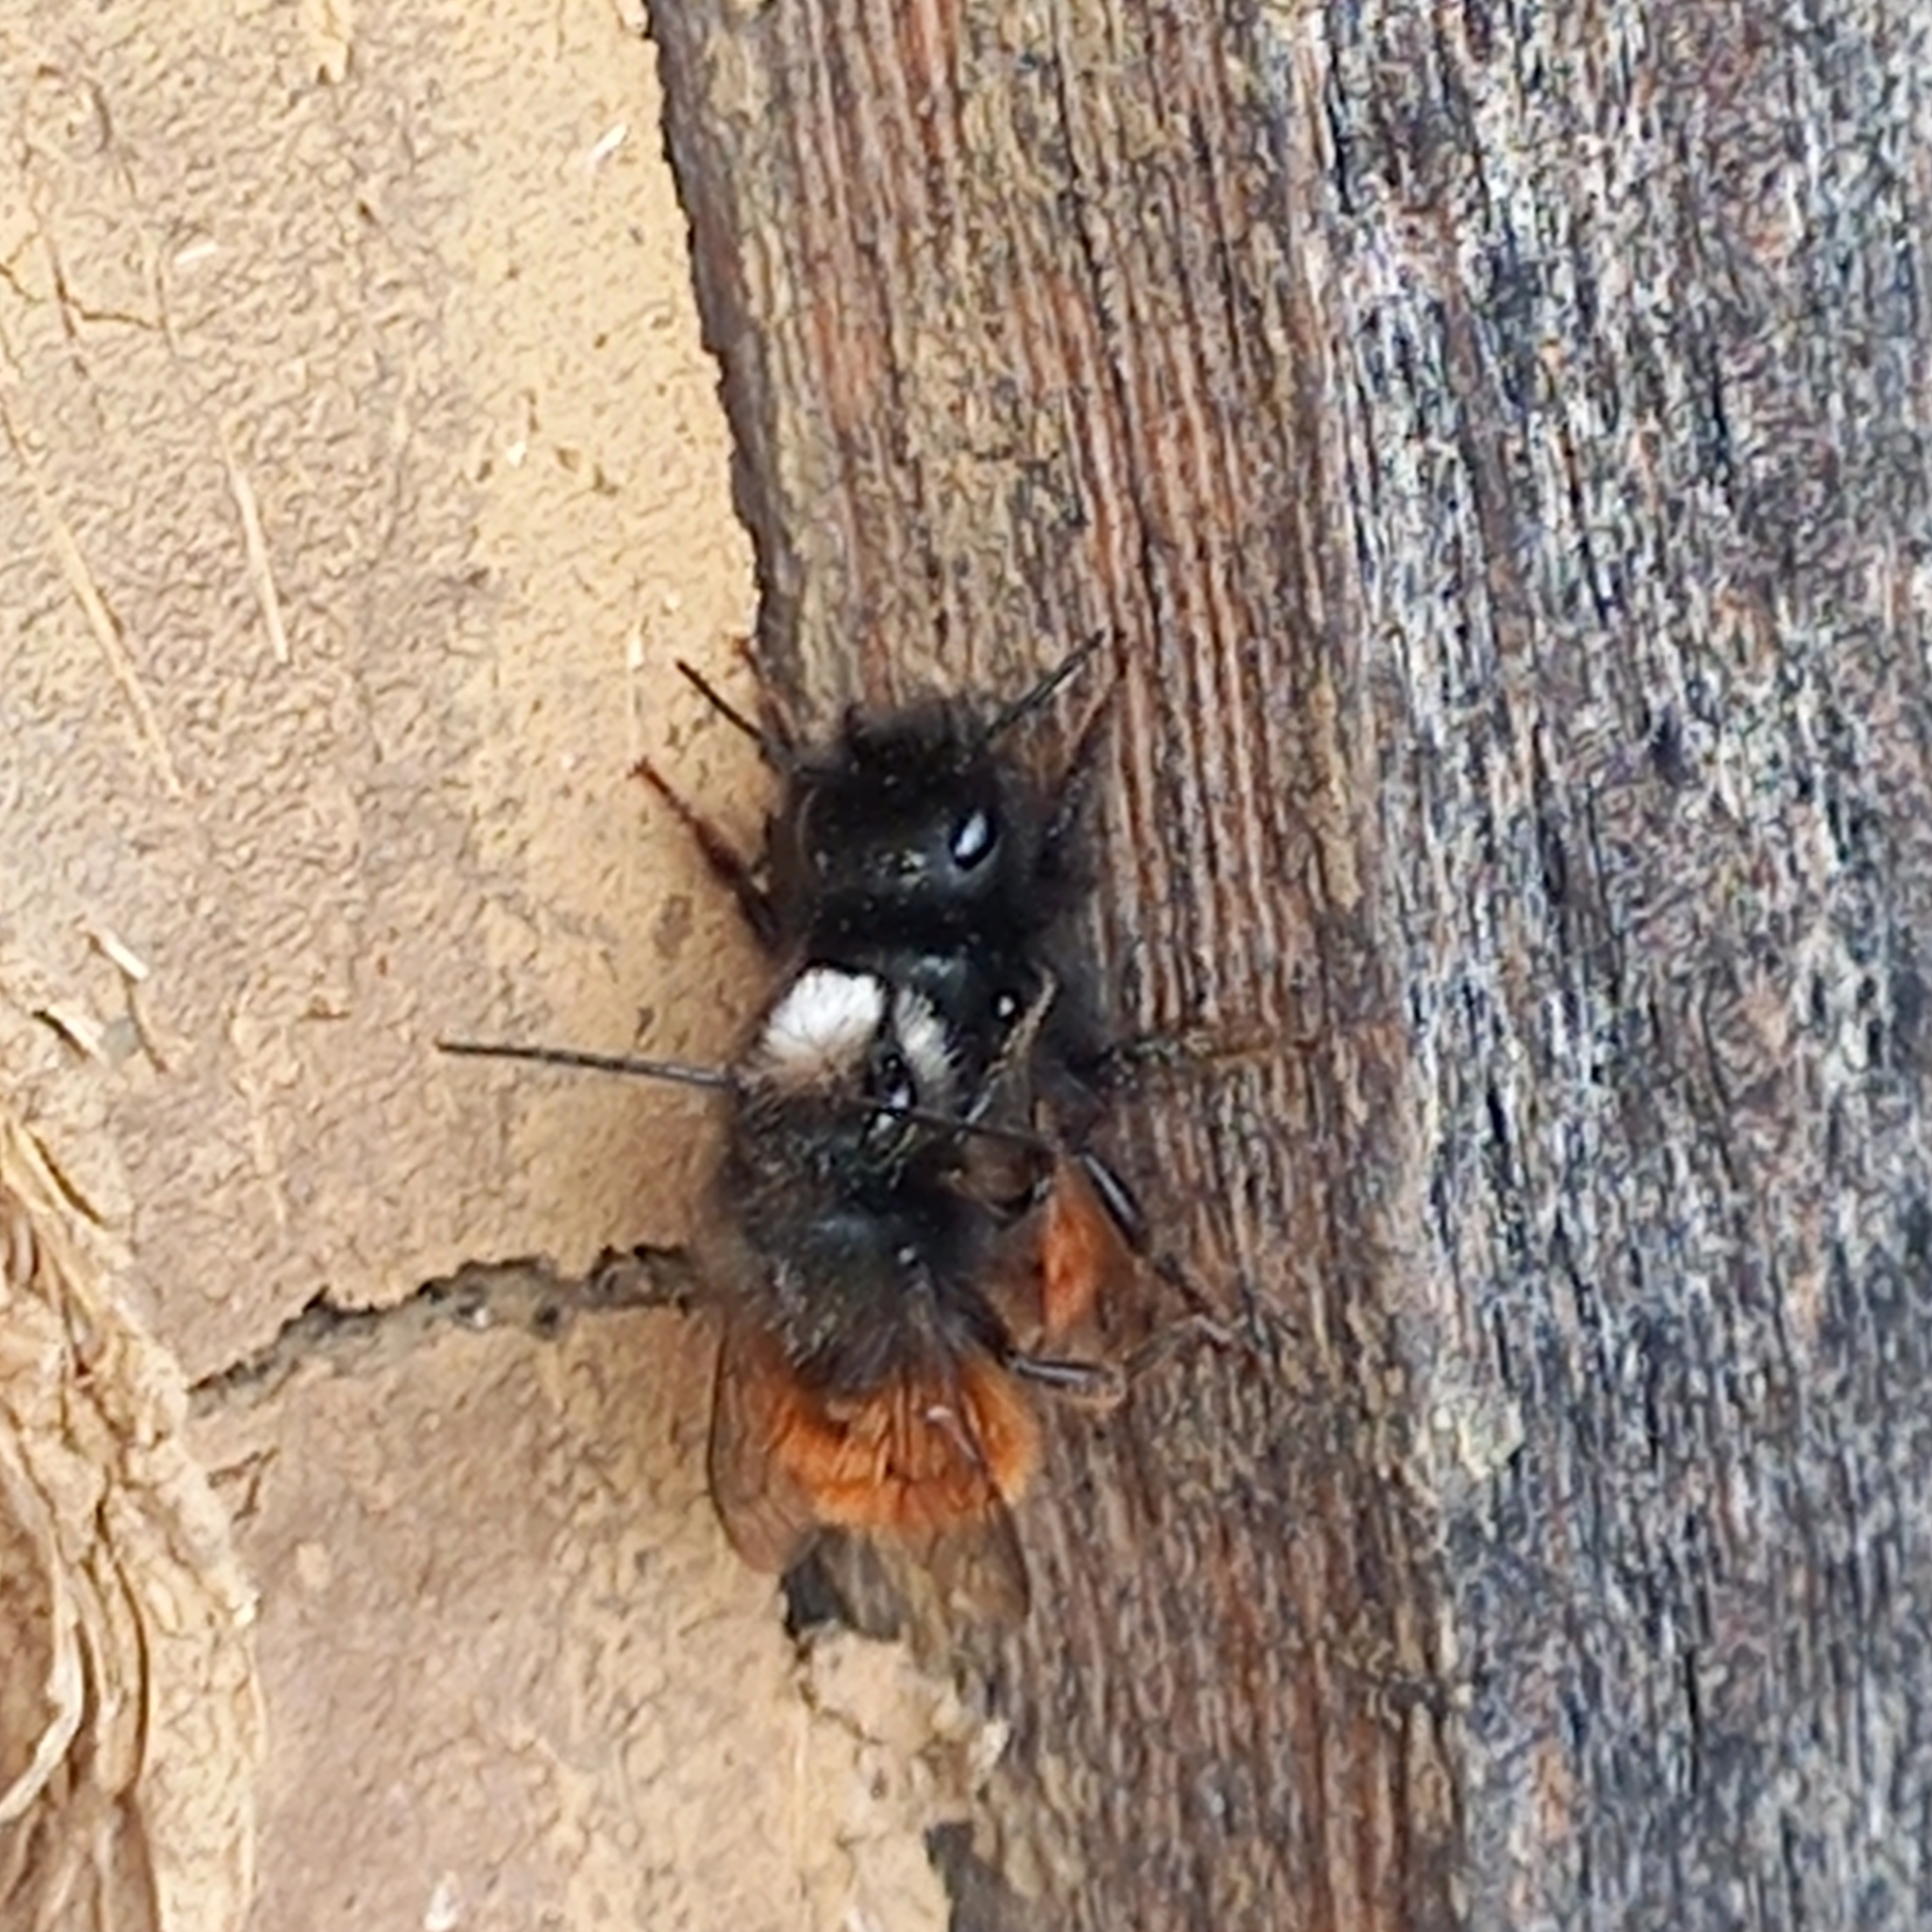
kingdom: Animalia
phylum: Arthropoda
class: Insecta
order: Hymenoptera
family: Megachilidae
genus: Osmia
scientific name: Osmia cornuta
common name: Mason bee
